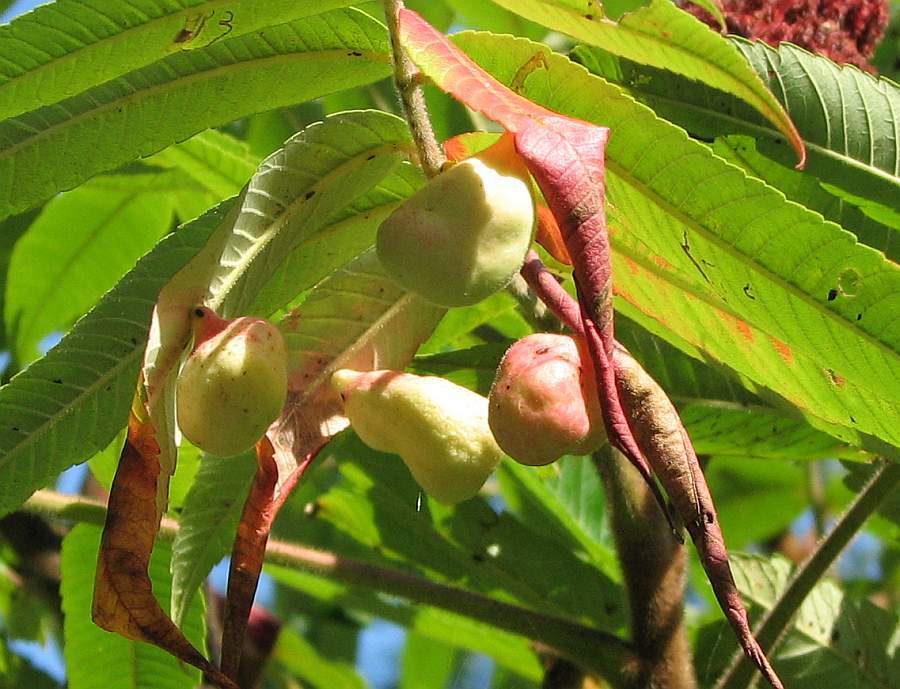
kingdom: Animalia
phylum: Arthropoda
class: Insecta
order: Hemiptera
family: Aphididae
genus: Melaphis
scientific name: Melaphis rhois
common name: Sumac gall aphid
